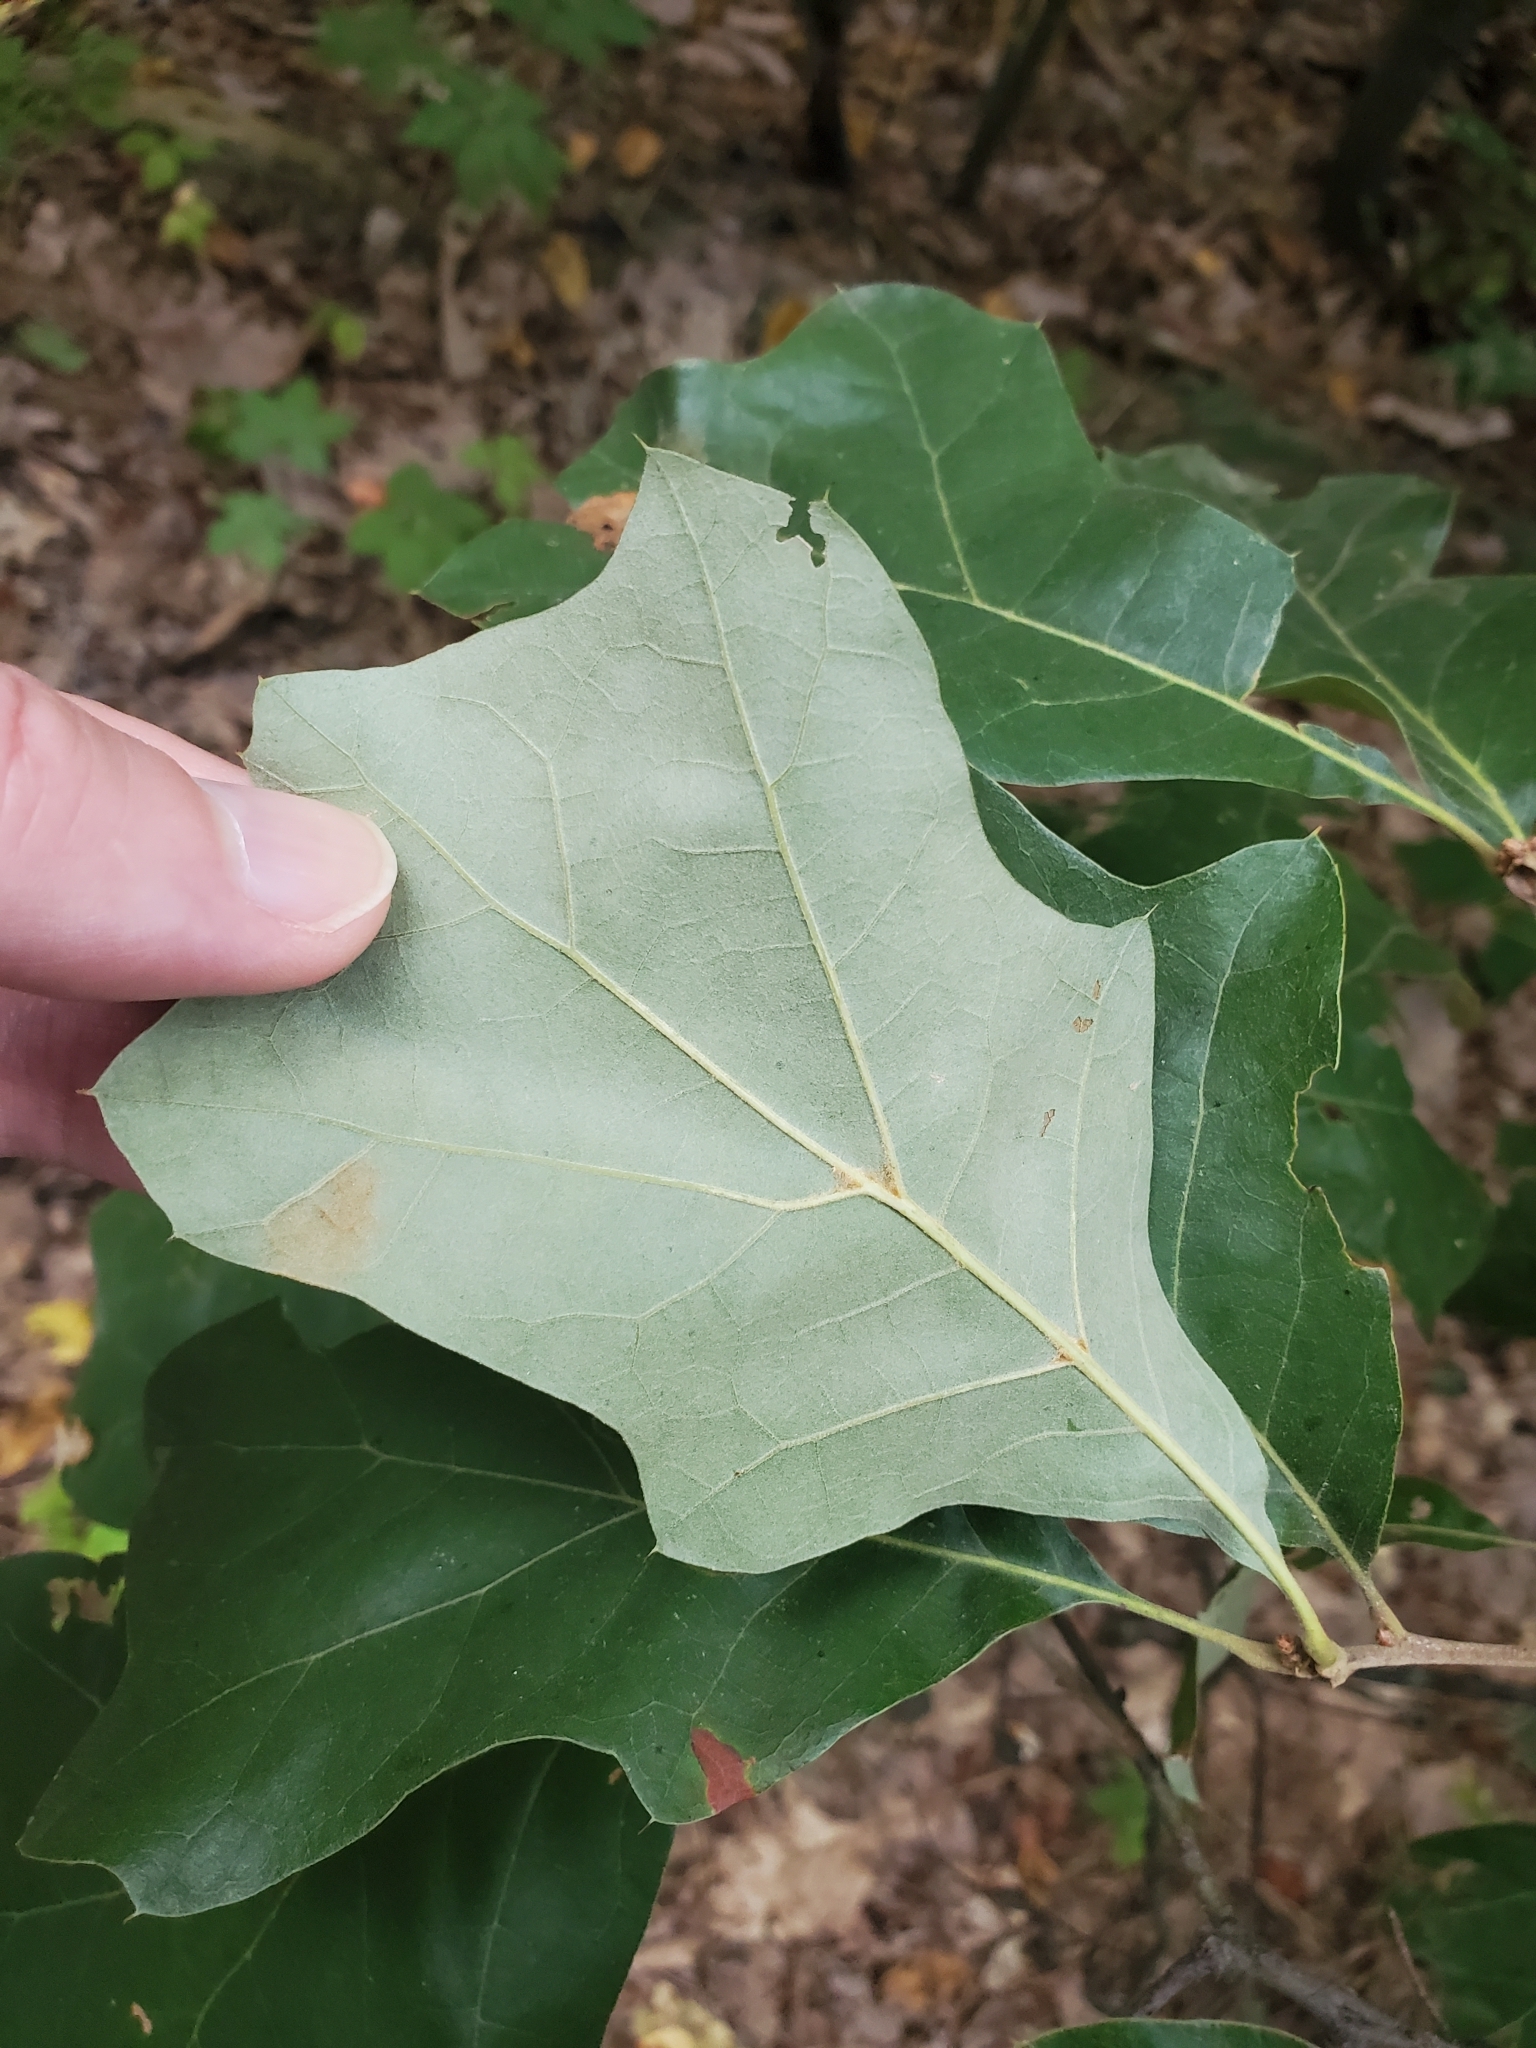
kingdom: Plantae
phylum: Tracheophyta
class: Magnoliopsida
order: Fagales
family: Fagaceae
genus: Quercus
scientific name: Quercus ilicifolia
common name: Bear oak
